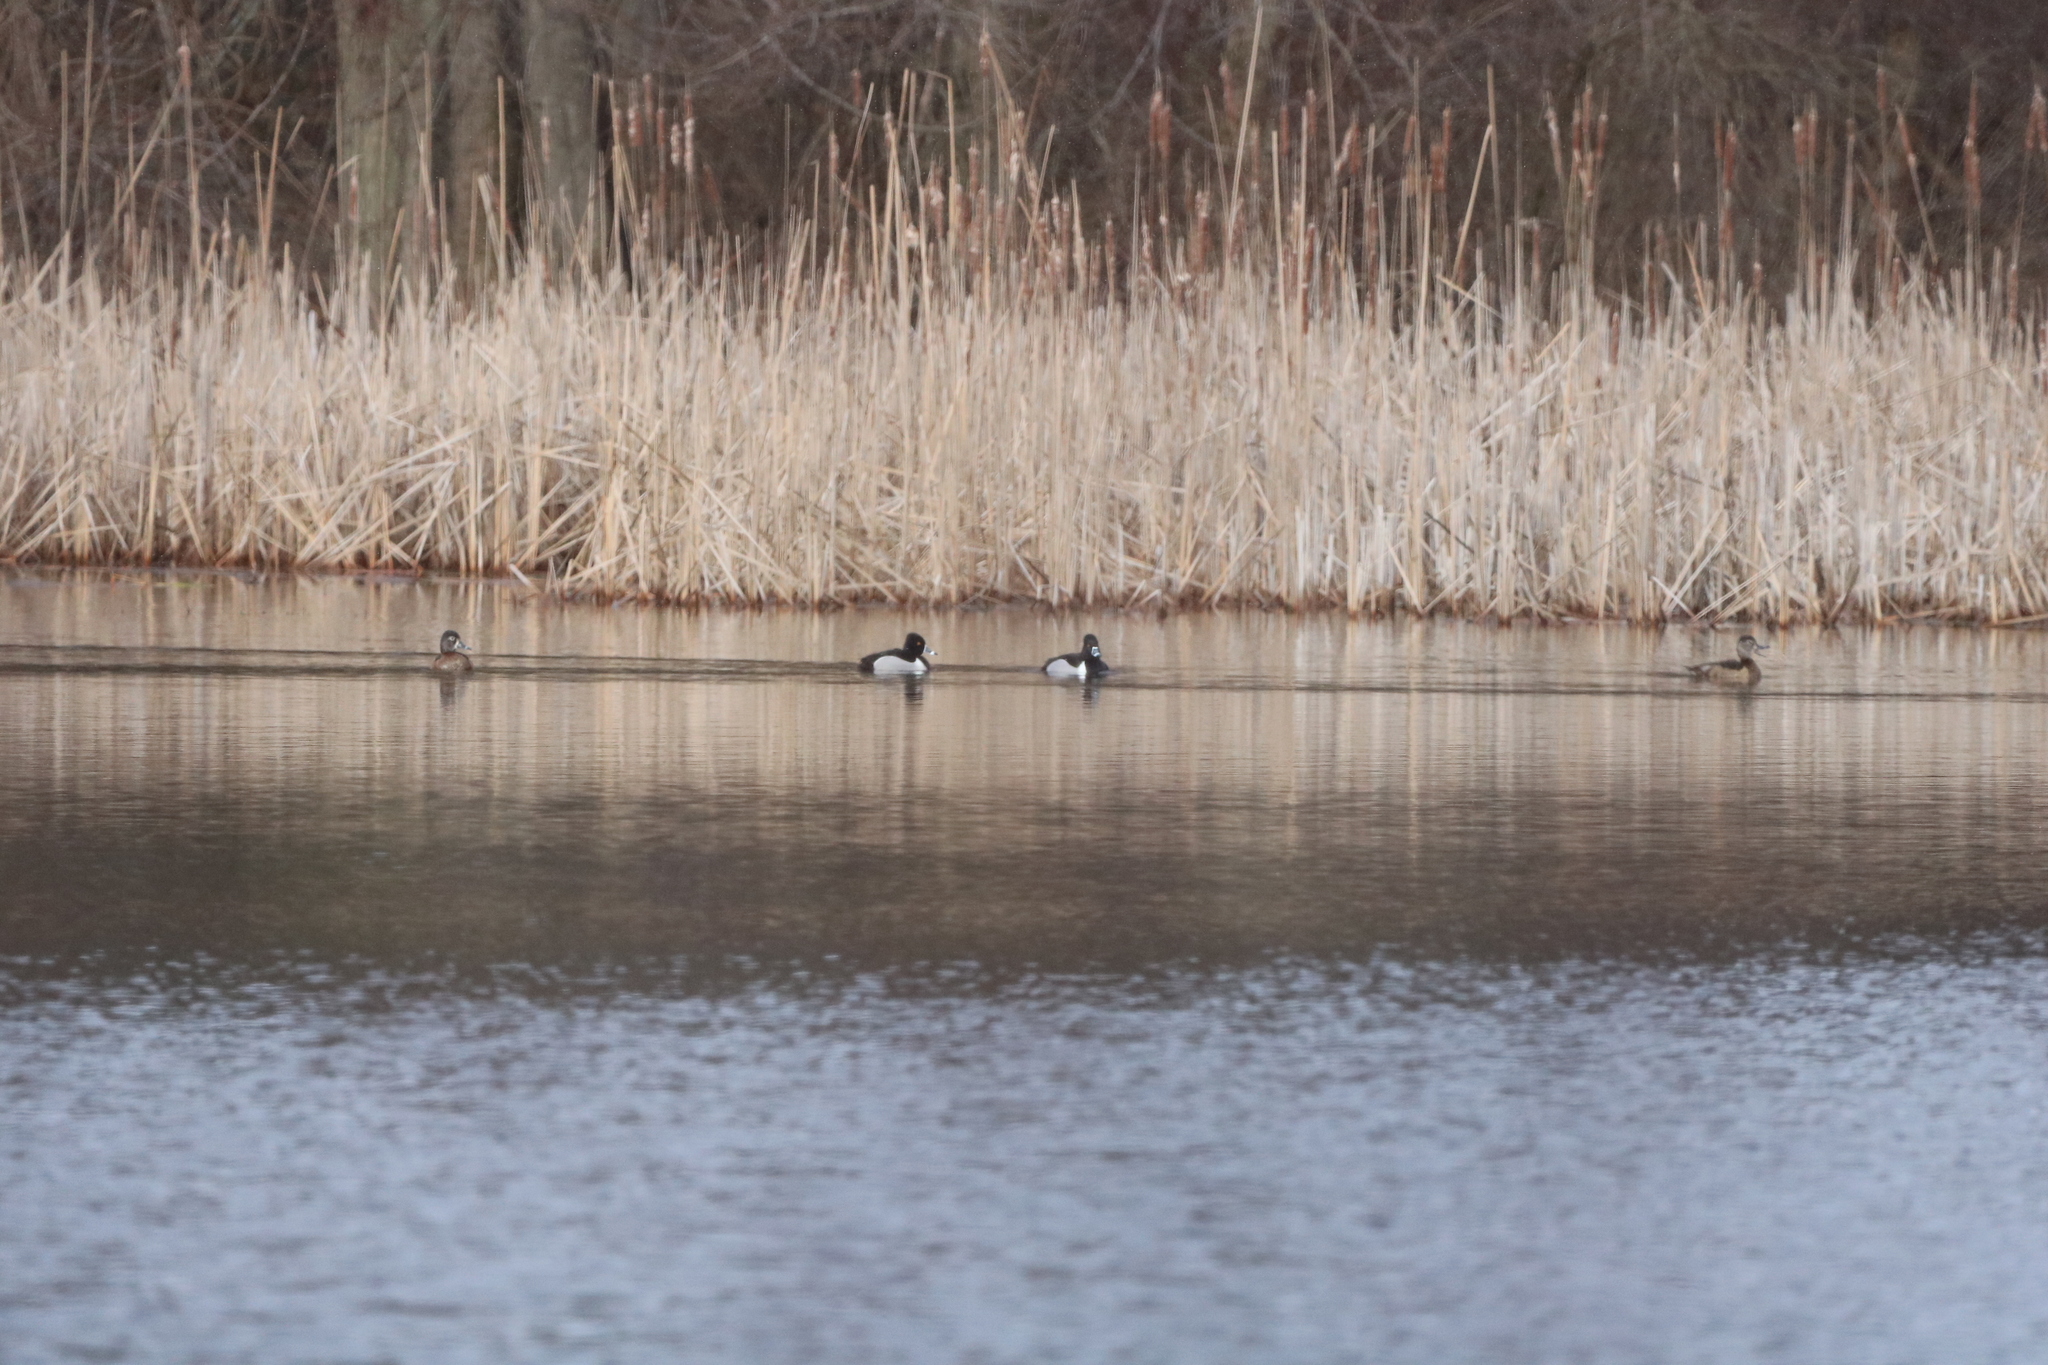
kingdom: Animalia
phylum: Chordata
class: Aves
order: Anseriformes
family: Anatidae
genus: Aythya
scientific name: Aythya collaris
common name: Ring-necked duck
